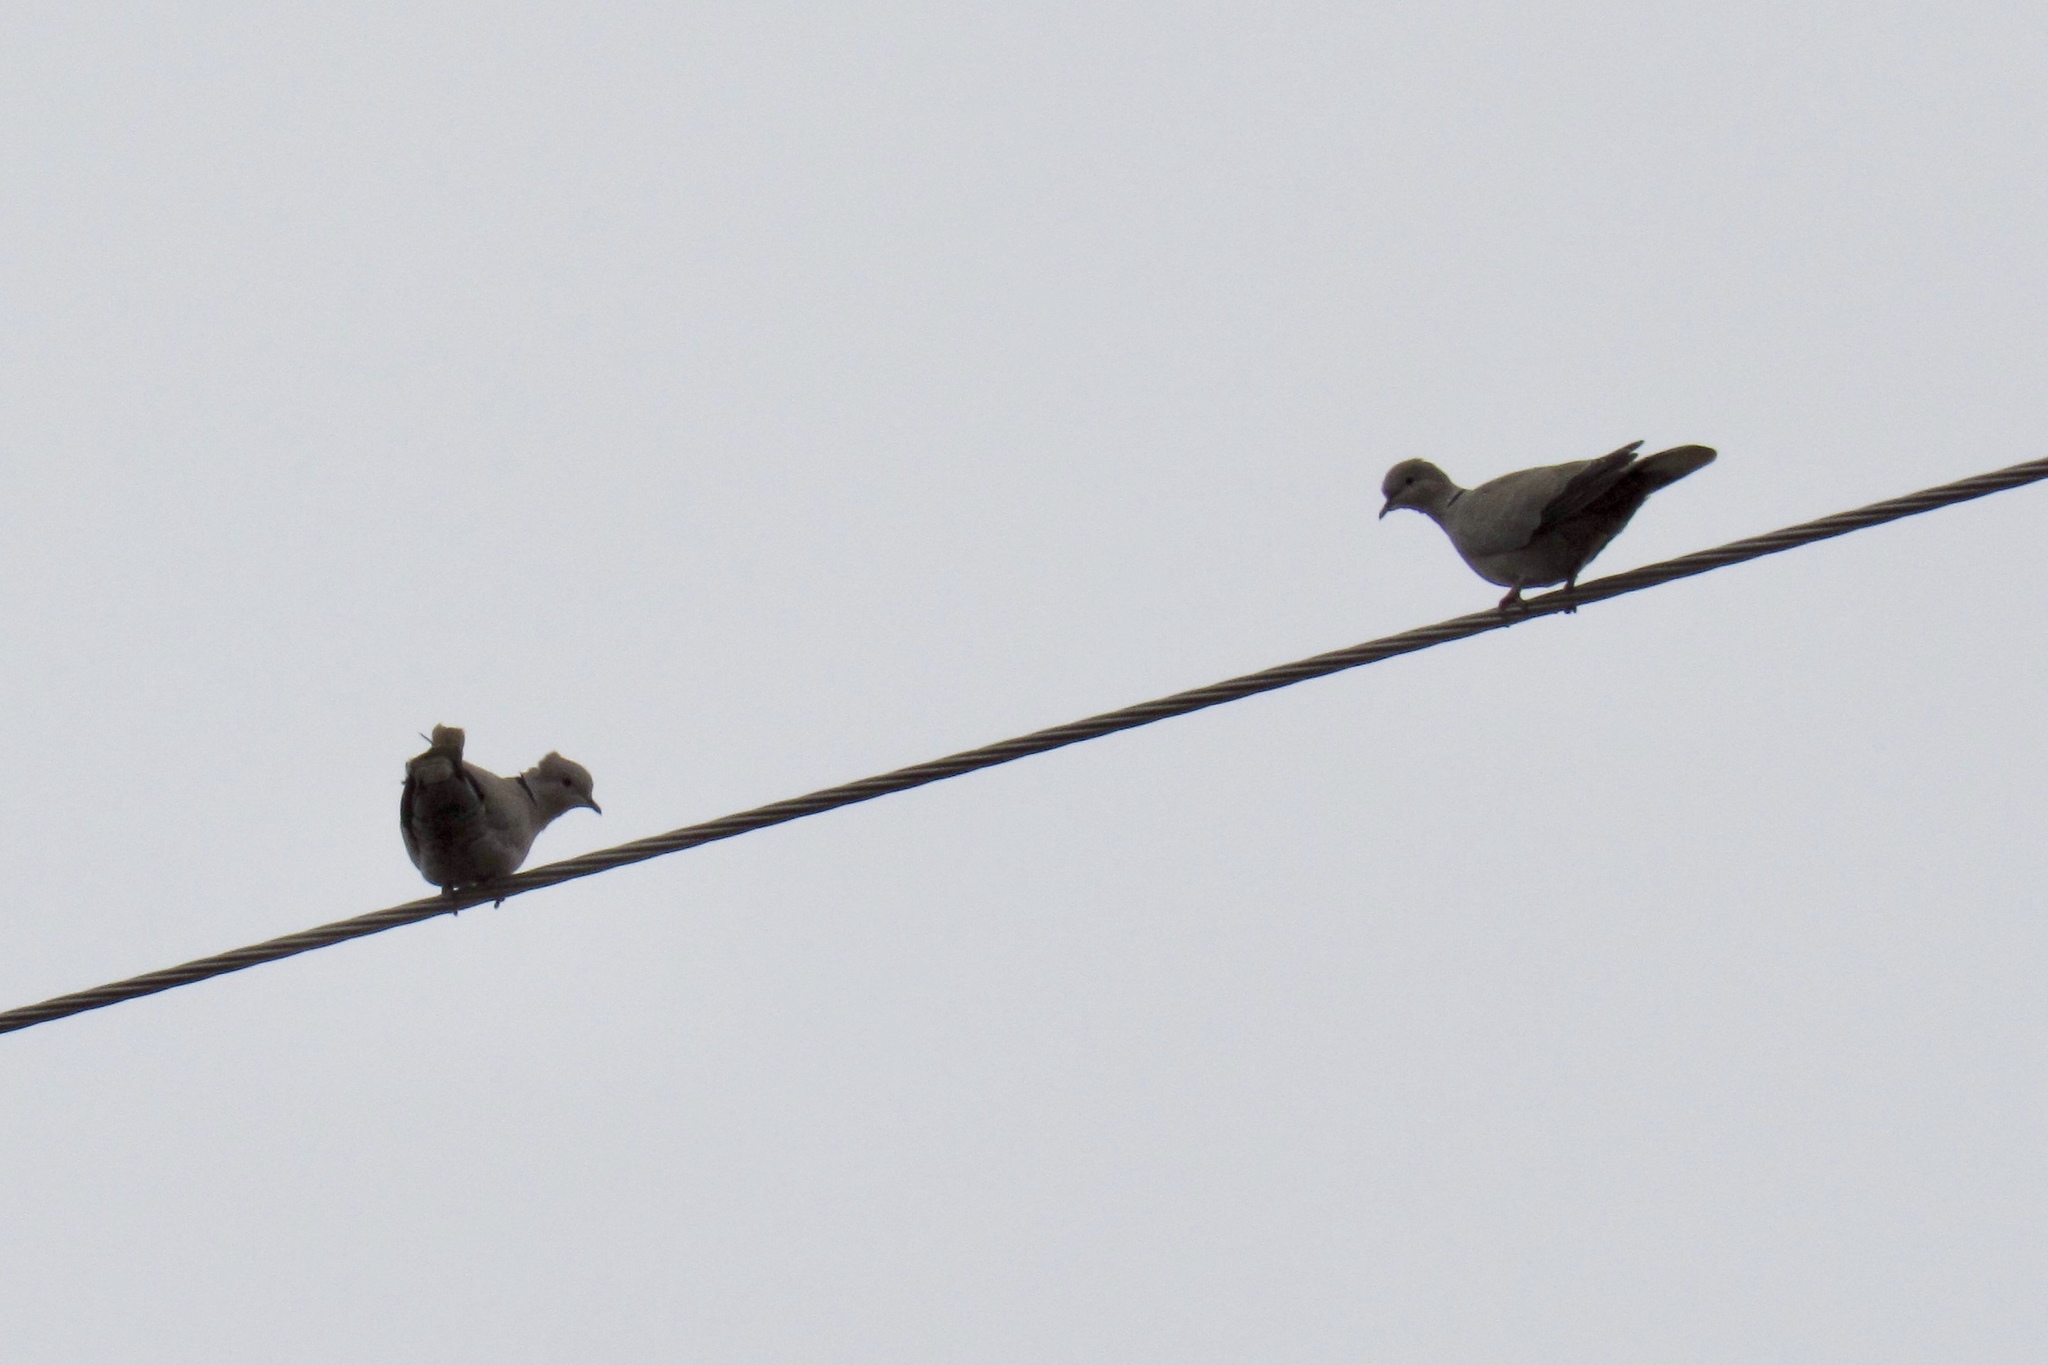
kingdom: Animalia
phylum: Chordata
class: Aves
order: Columbiformes
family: Columbidae
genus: Streptopelia
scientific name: Streptopelia decaocto
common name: Eurasian collared dove
